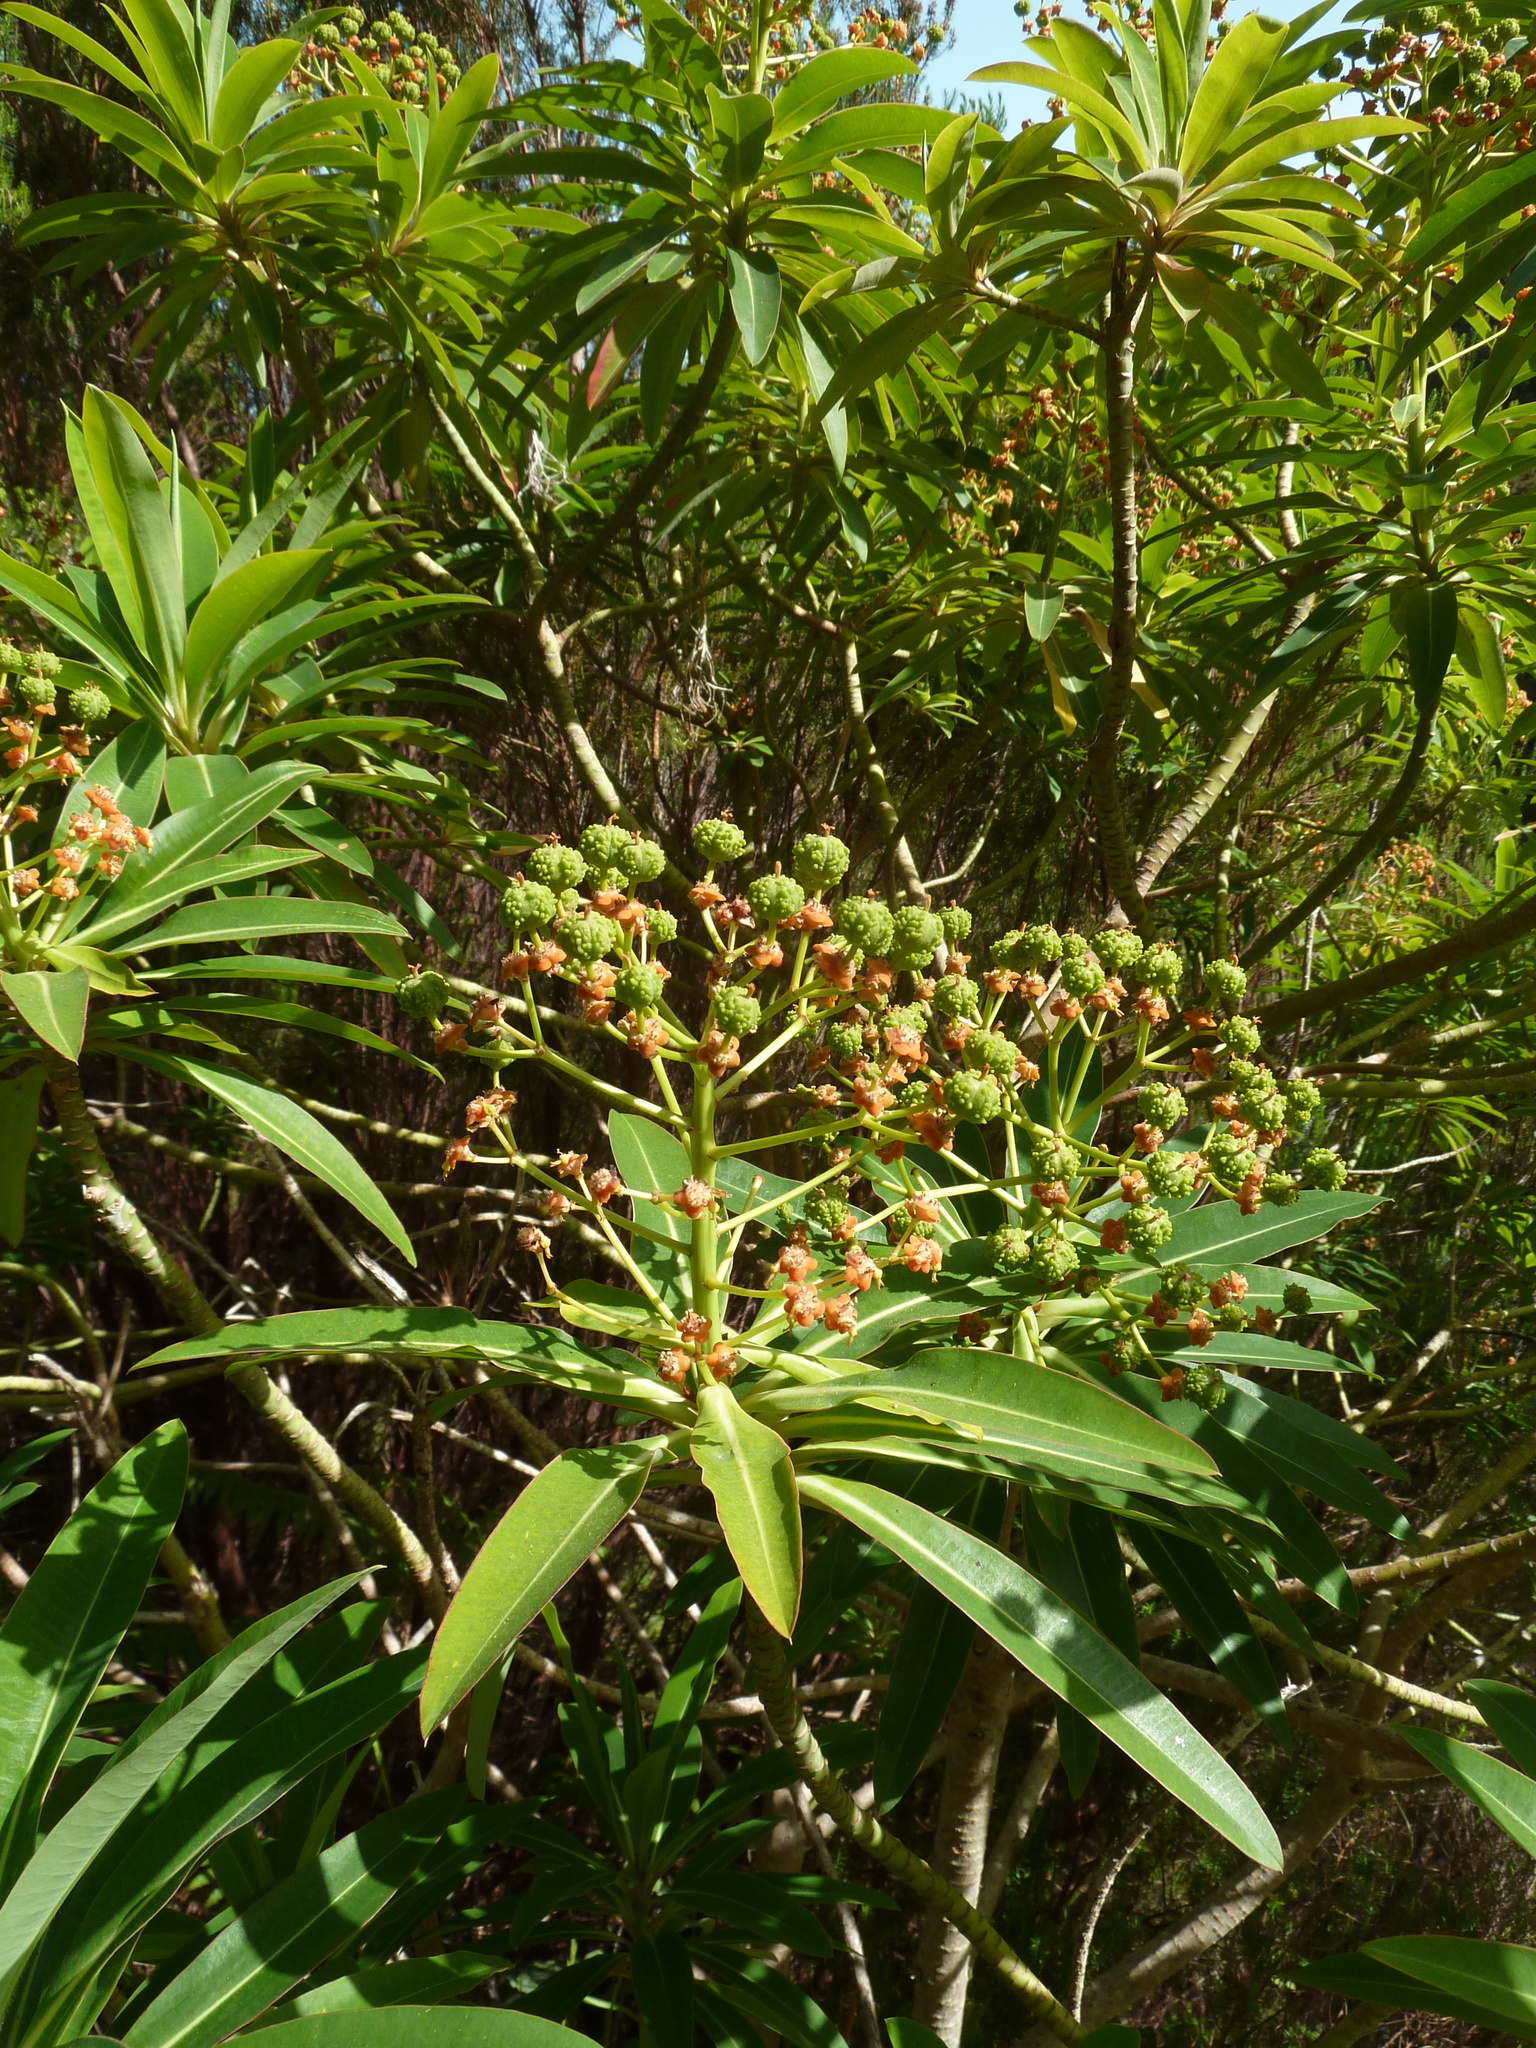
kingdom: Plantae
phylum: Tracheophyta
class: Magnoliopsida
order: Malpighiales
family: Euphorbiaceae
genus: Euphorbia
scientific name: Euphorbia mellifera
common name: Canary spurge
